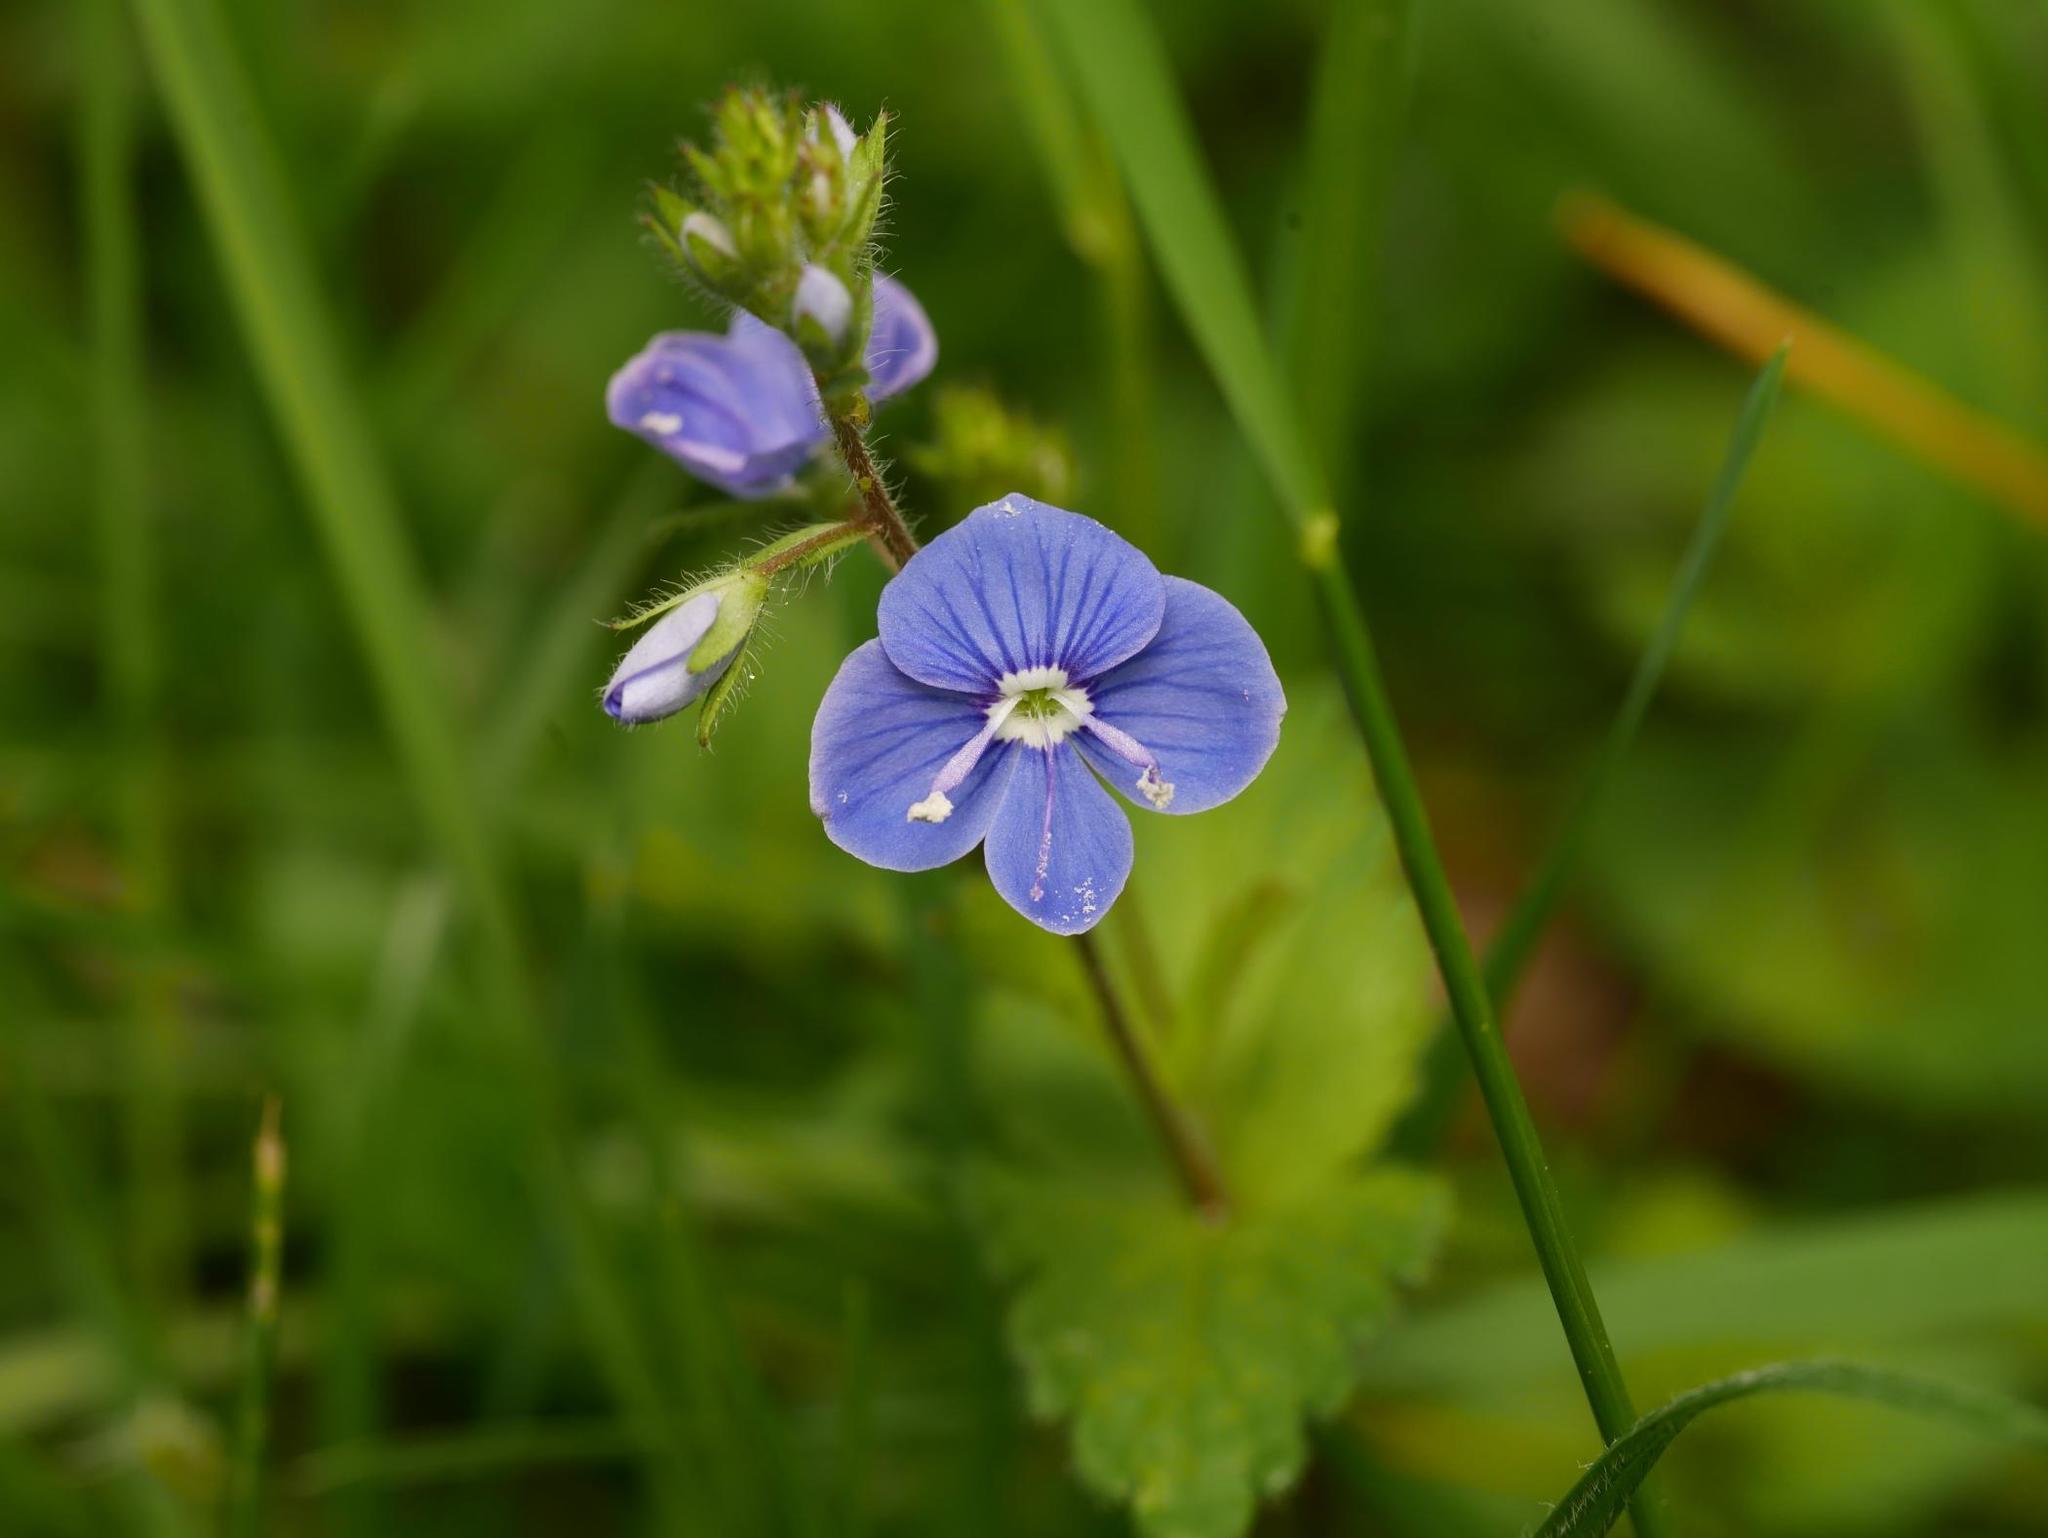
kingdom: Plantae
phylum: Tracheophyta
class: Magnoliopsida
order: Lamiales
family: Plantaginaceae
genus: Veronica
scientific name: Veronica chamaedrys
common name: Germander speedwell
